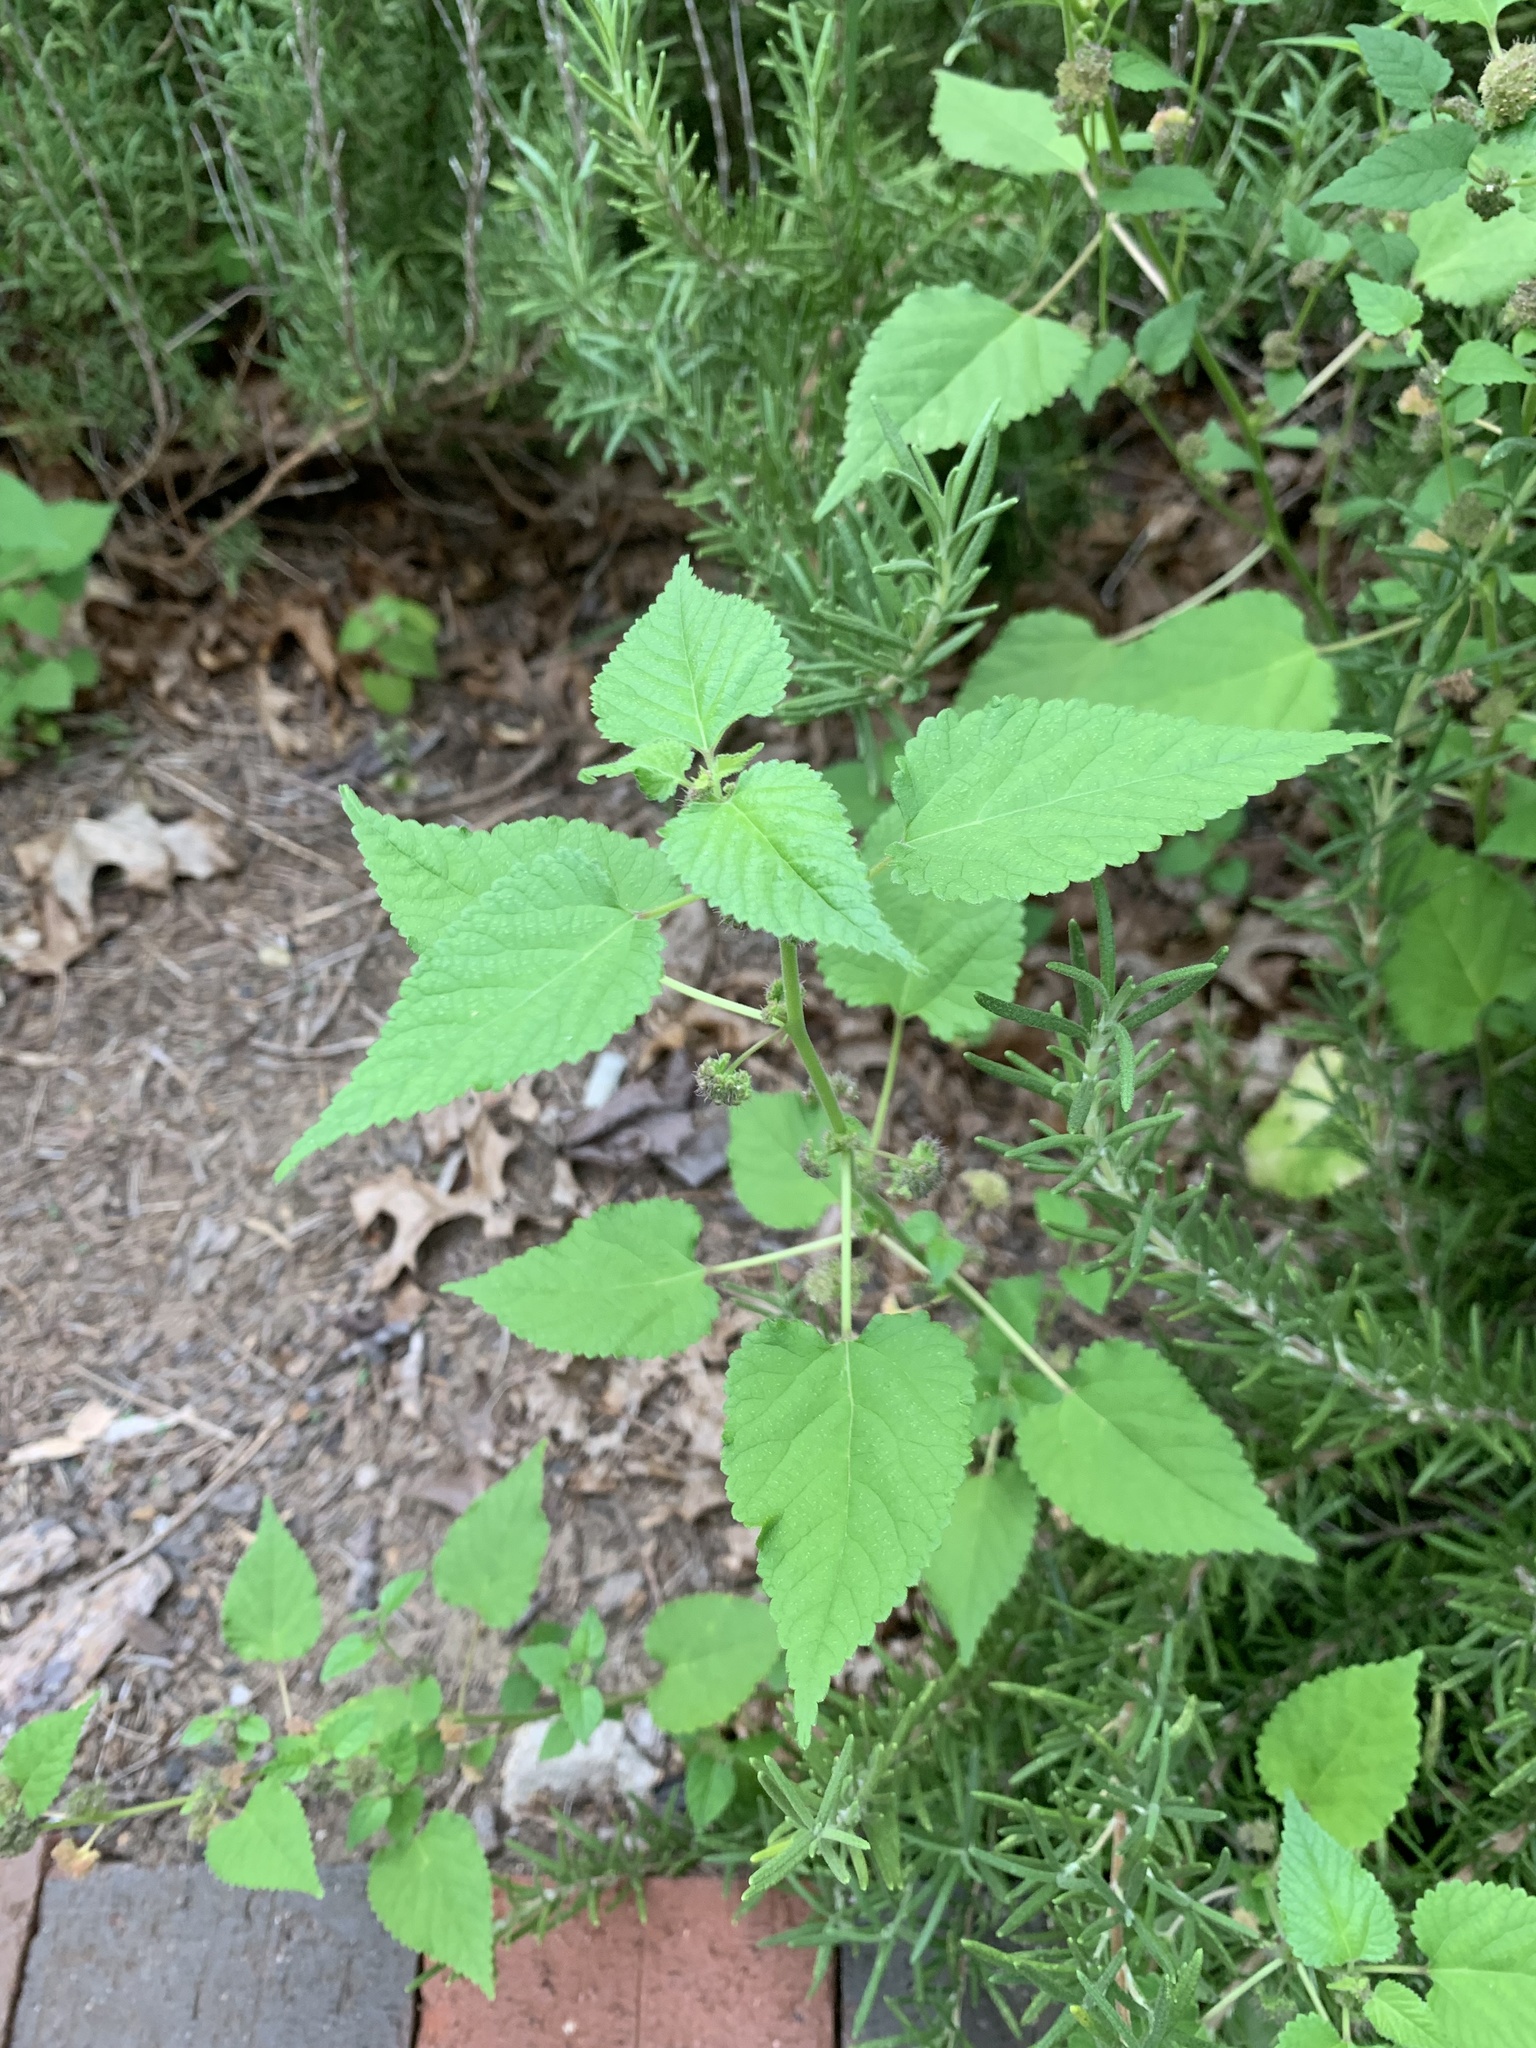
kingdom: Plantae
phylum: Tracheophyta
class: Magnoliopsida
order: Rosales
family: Moraceae
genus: Fatoua
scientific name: Fatoua villosa
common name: Hairy crabweed
